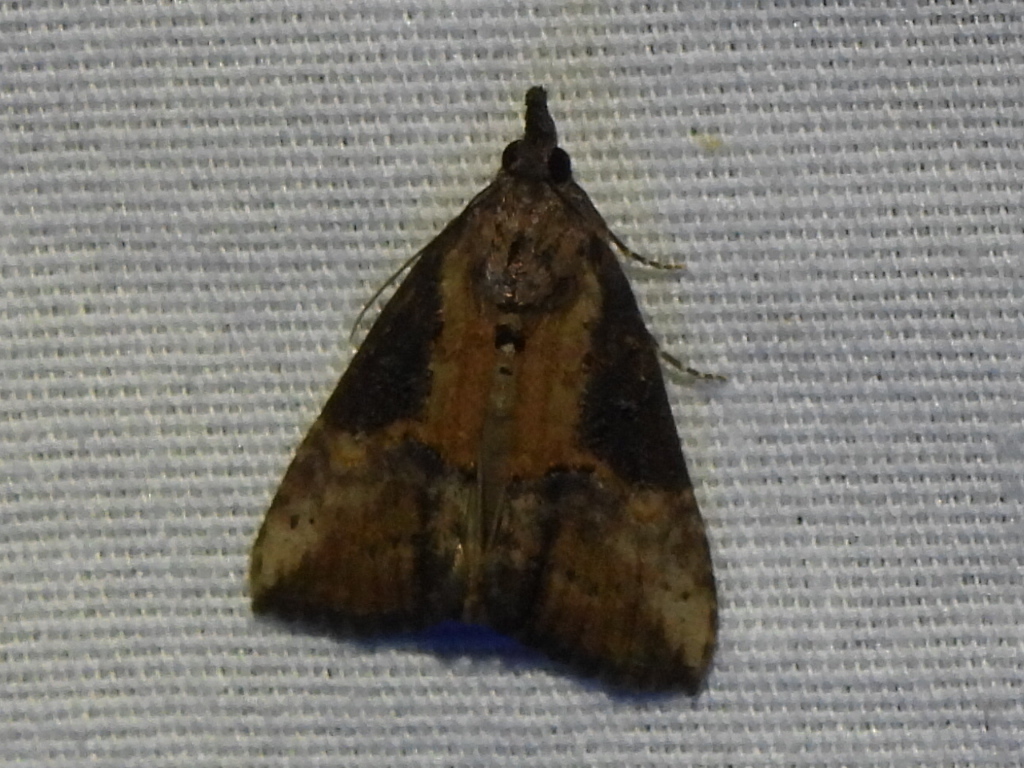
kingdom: Animalia
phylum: Arthropoda
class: Insecta
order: Lepidoptera
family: Erebidae
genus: Hypena
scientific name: Hypena scabra
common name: Green cloverworm
